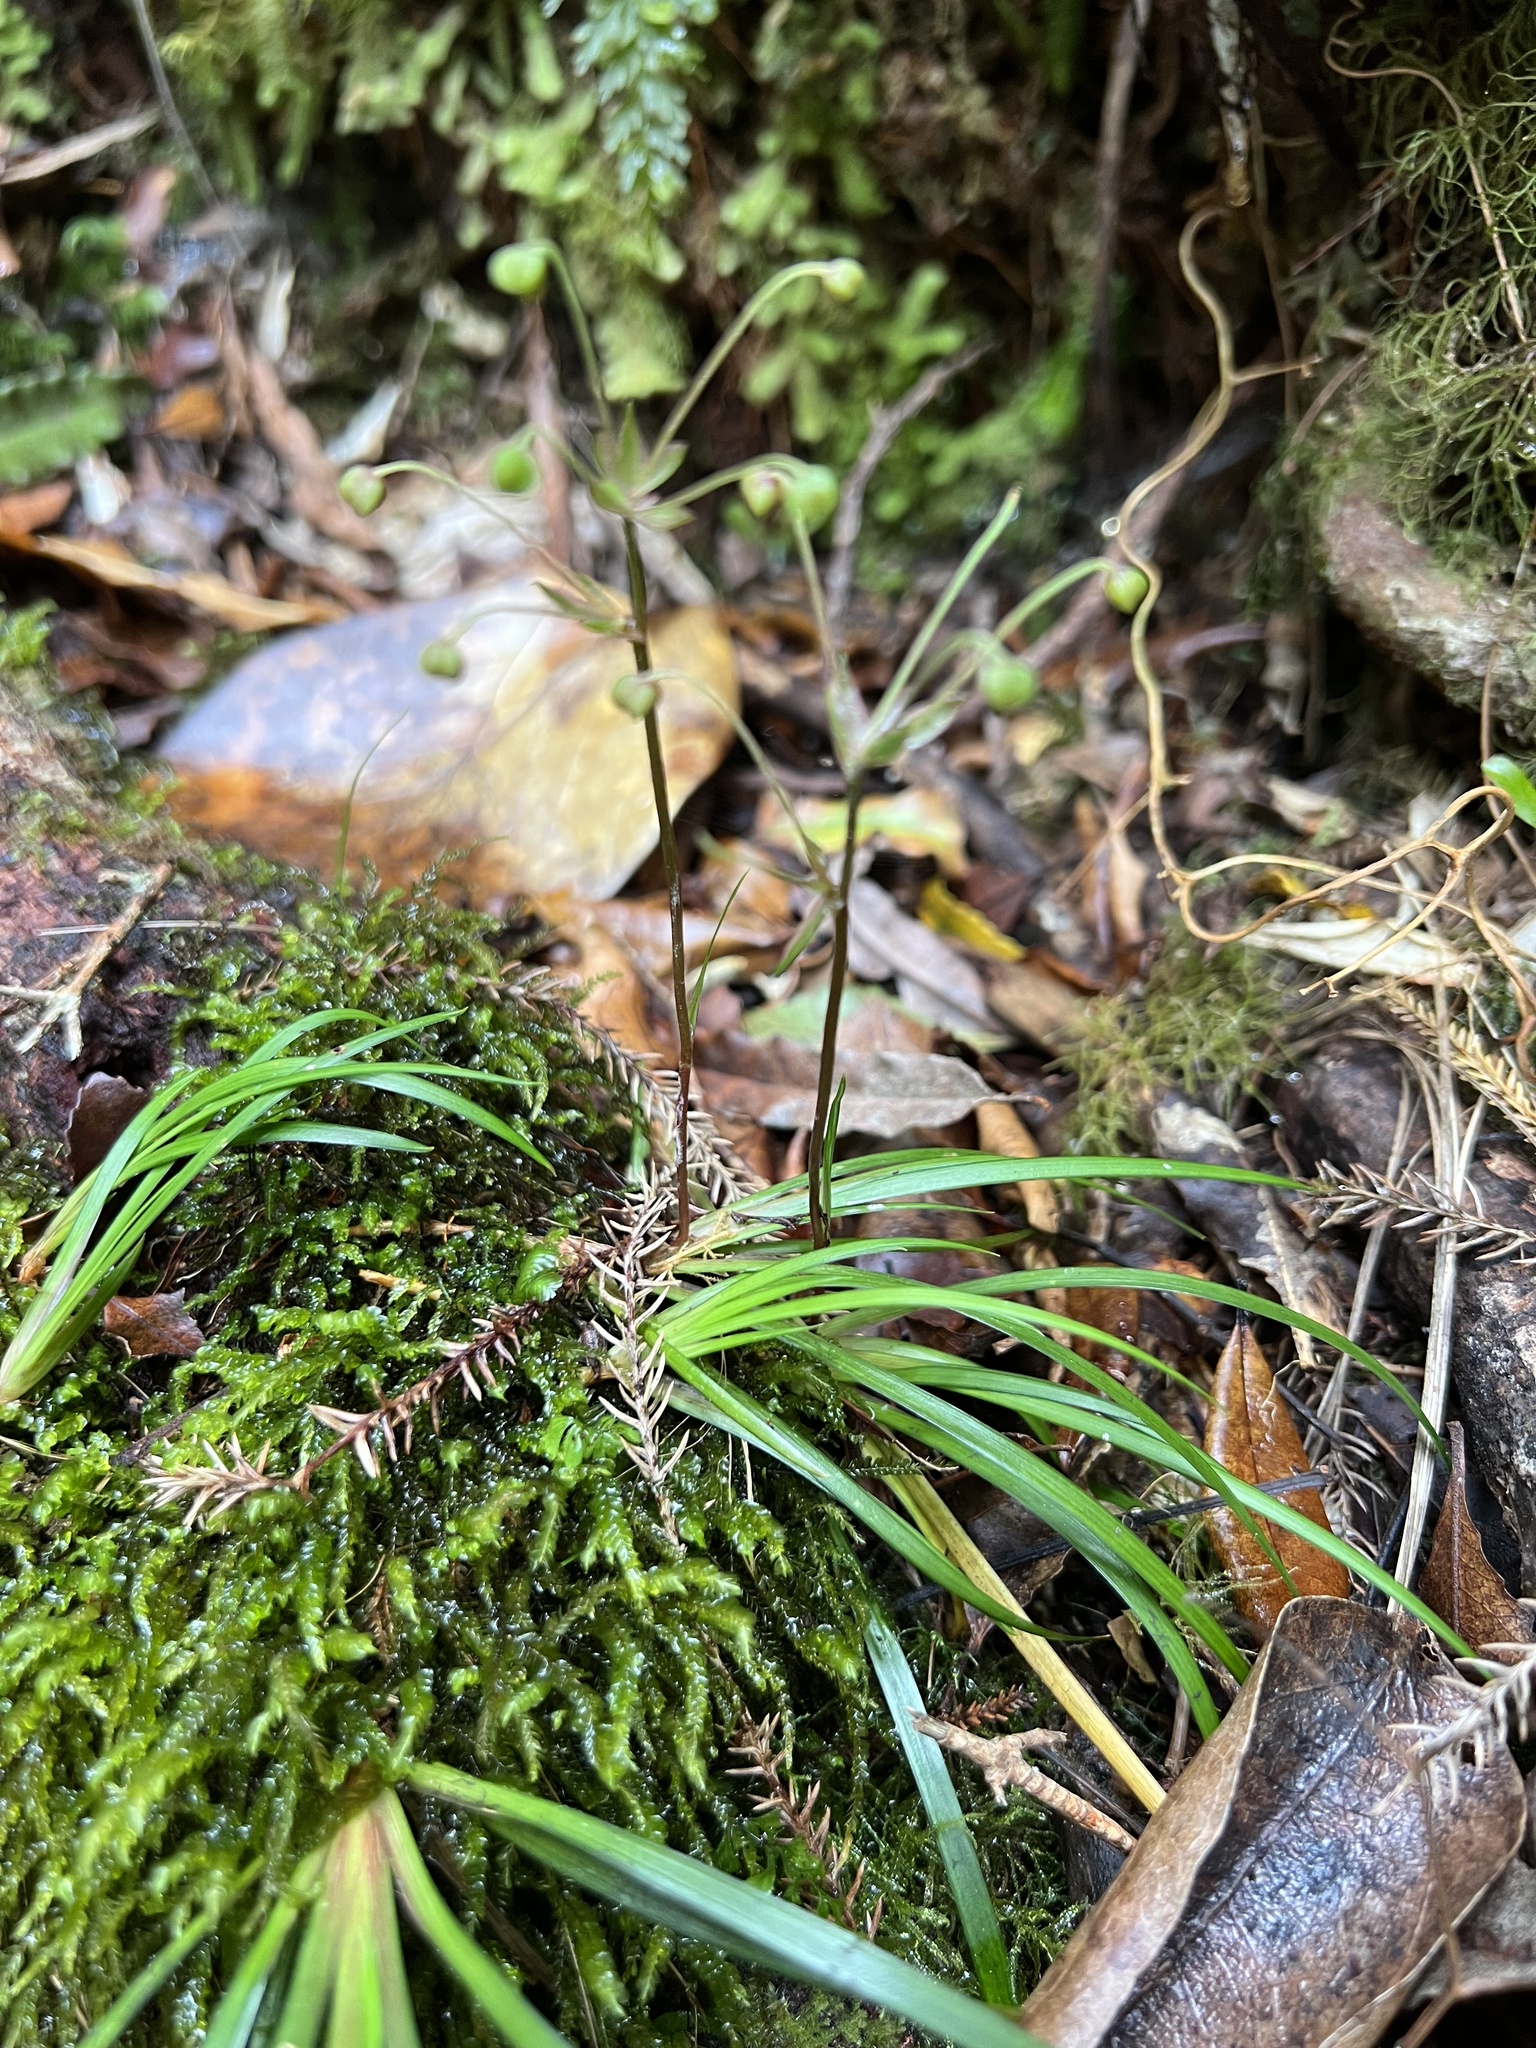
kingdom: Plantae
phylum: Tracheophyta
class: Liliopsida
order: Asparagales
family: Iridaceae
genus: Libertia
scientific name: Libertia micrantha
